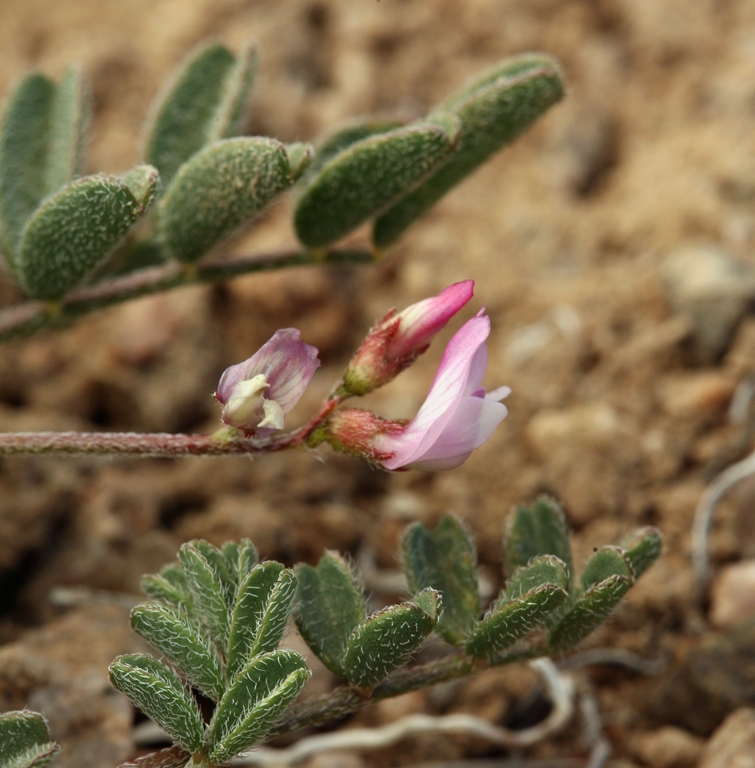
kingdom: Plantae
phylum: Tracheophyta
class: Magnoliopsida
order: Fabales
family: Fabaceae
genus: Astragalus
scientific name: Astragalus acutirostris
